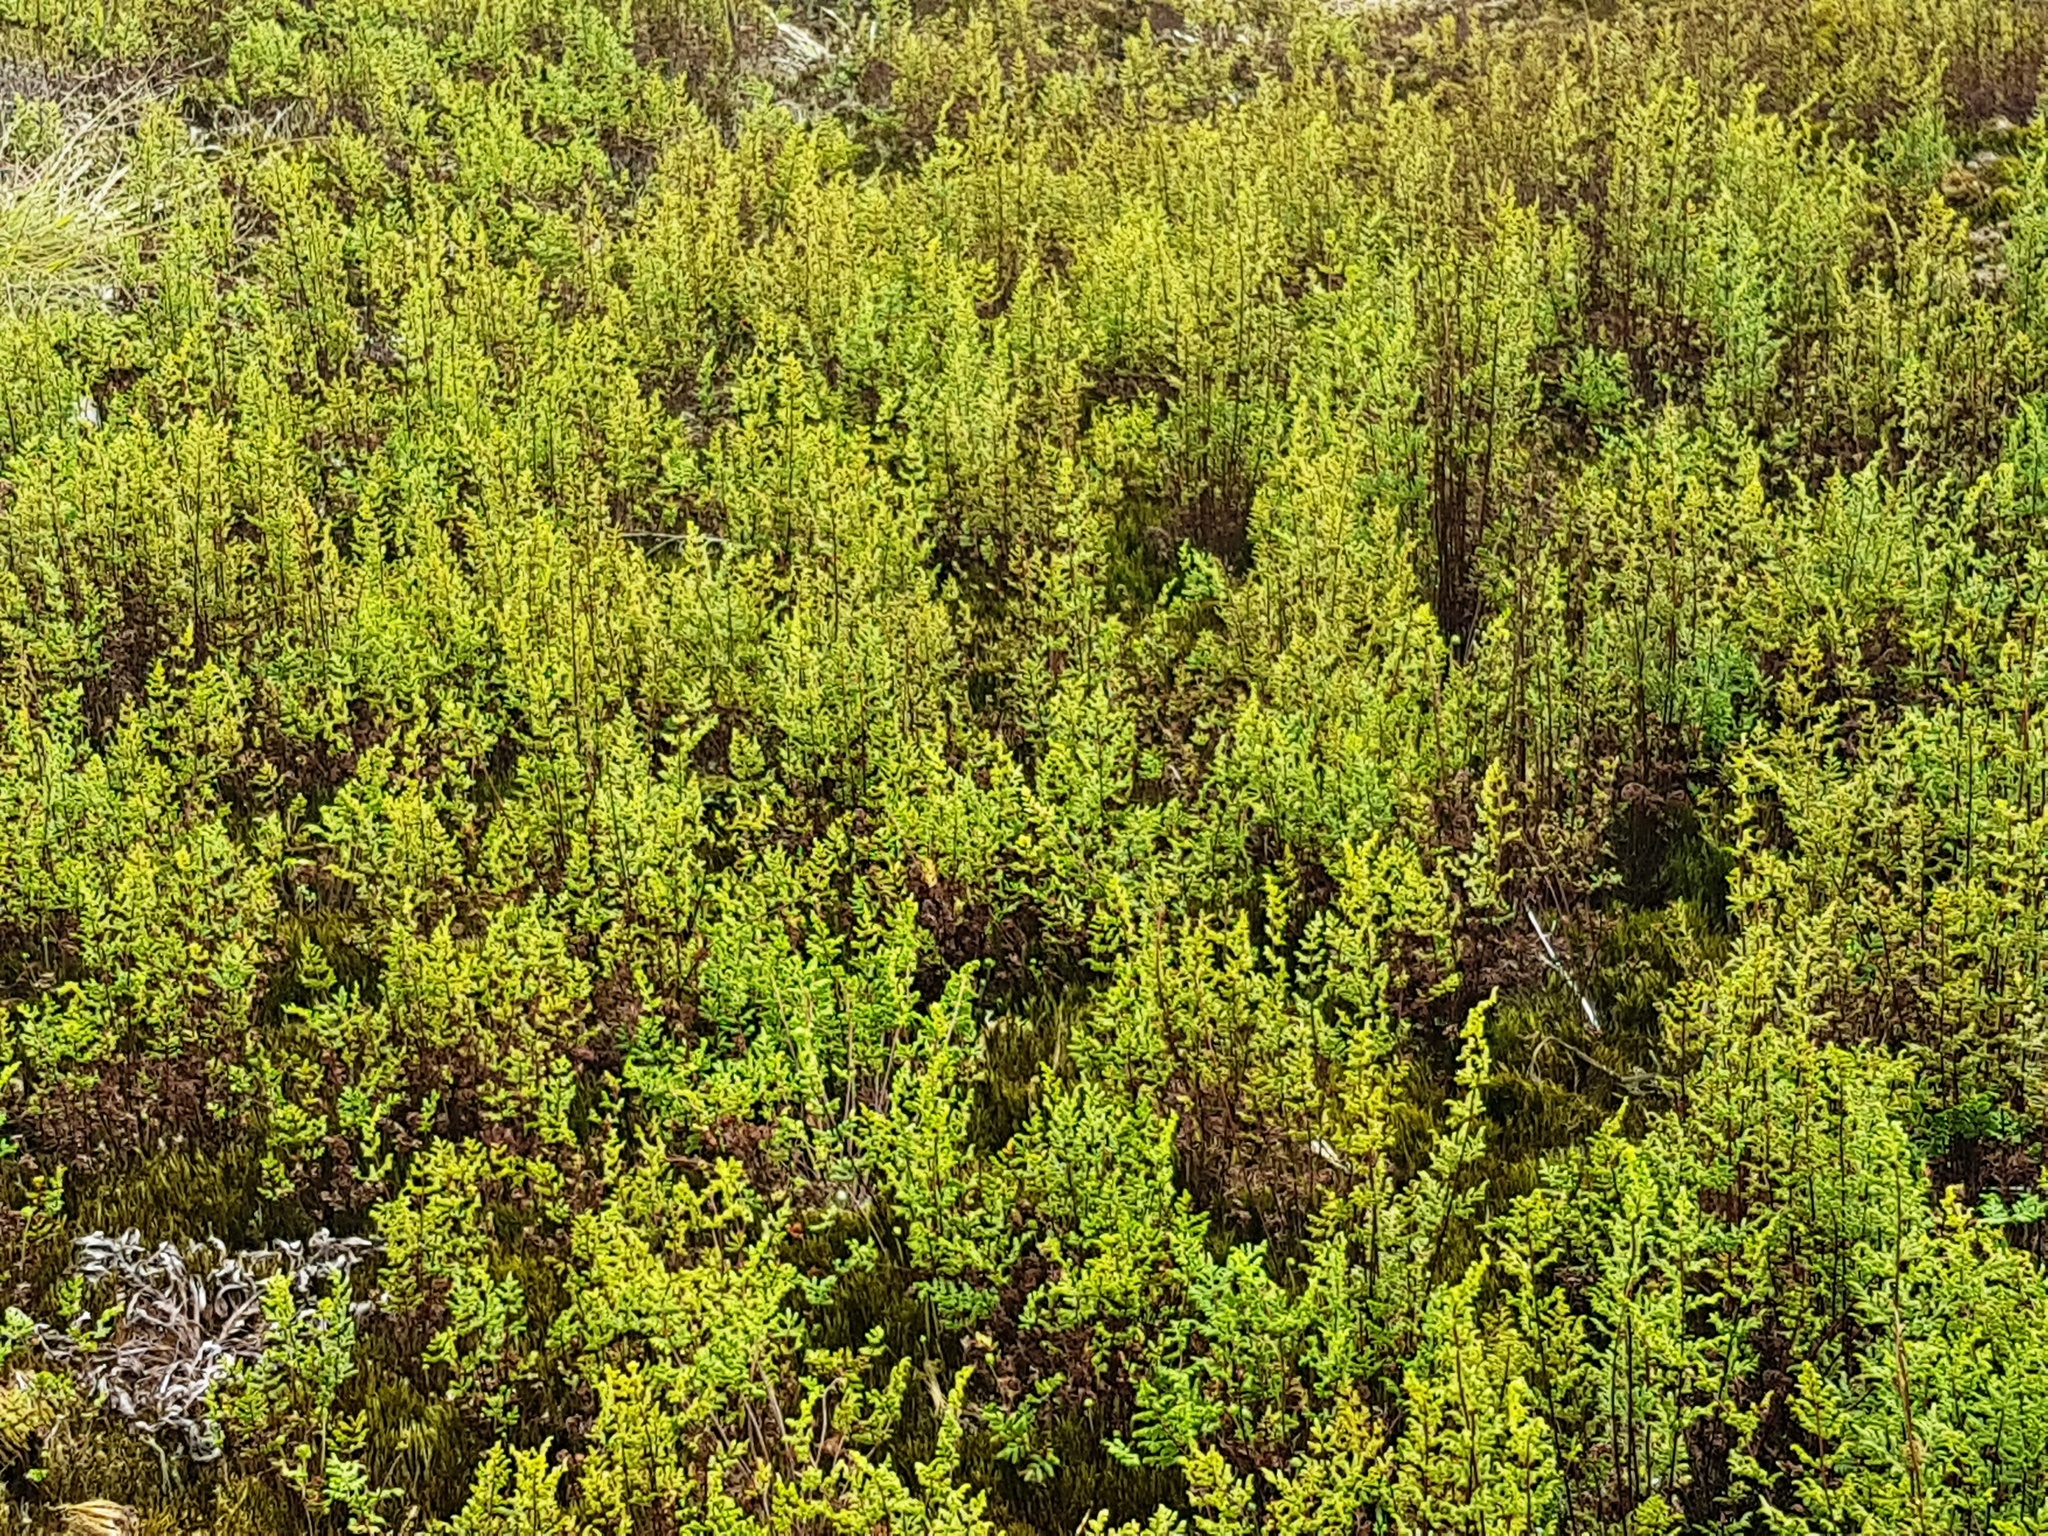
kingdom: Plantae
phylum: Tracheophyta
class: Polypodiopsida
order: Polypodiales
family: Pteridaceae
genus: Cheilanthes
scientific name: Cheilanthes sieberi
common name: Mulga fern
